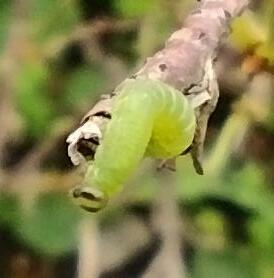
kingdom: Animalia
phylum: Arthropoda
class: Insecta
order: Hymenoptera
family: Tenthredinidae
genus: Pristiphora
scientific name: Pristiphora appendiculata
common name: Tenthredid wasp
